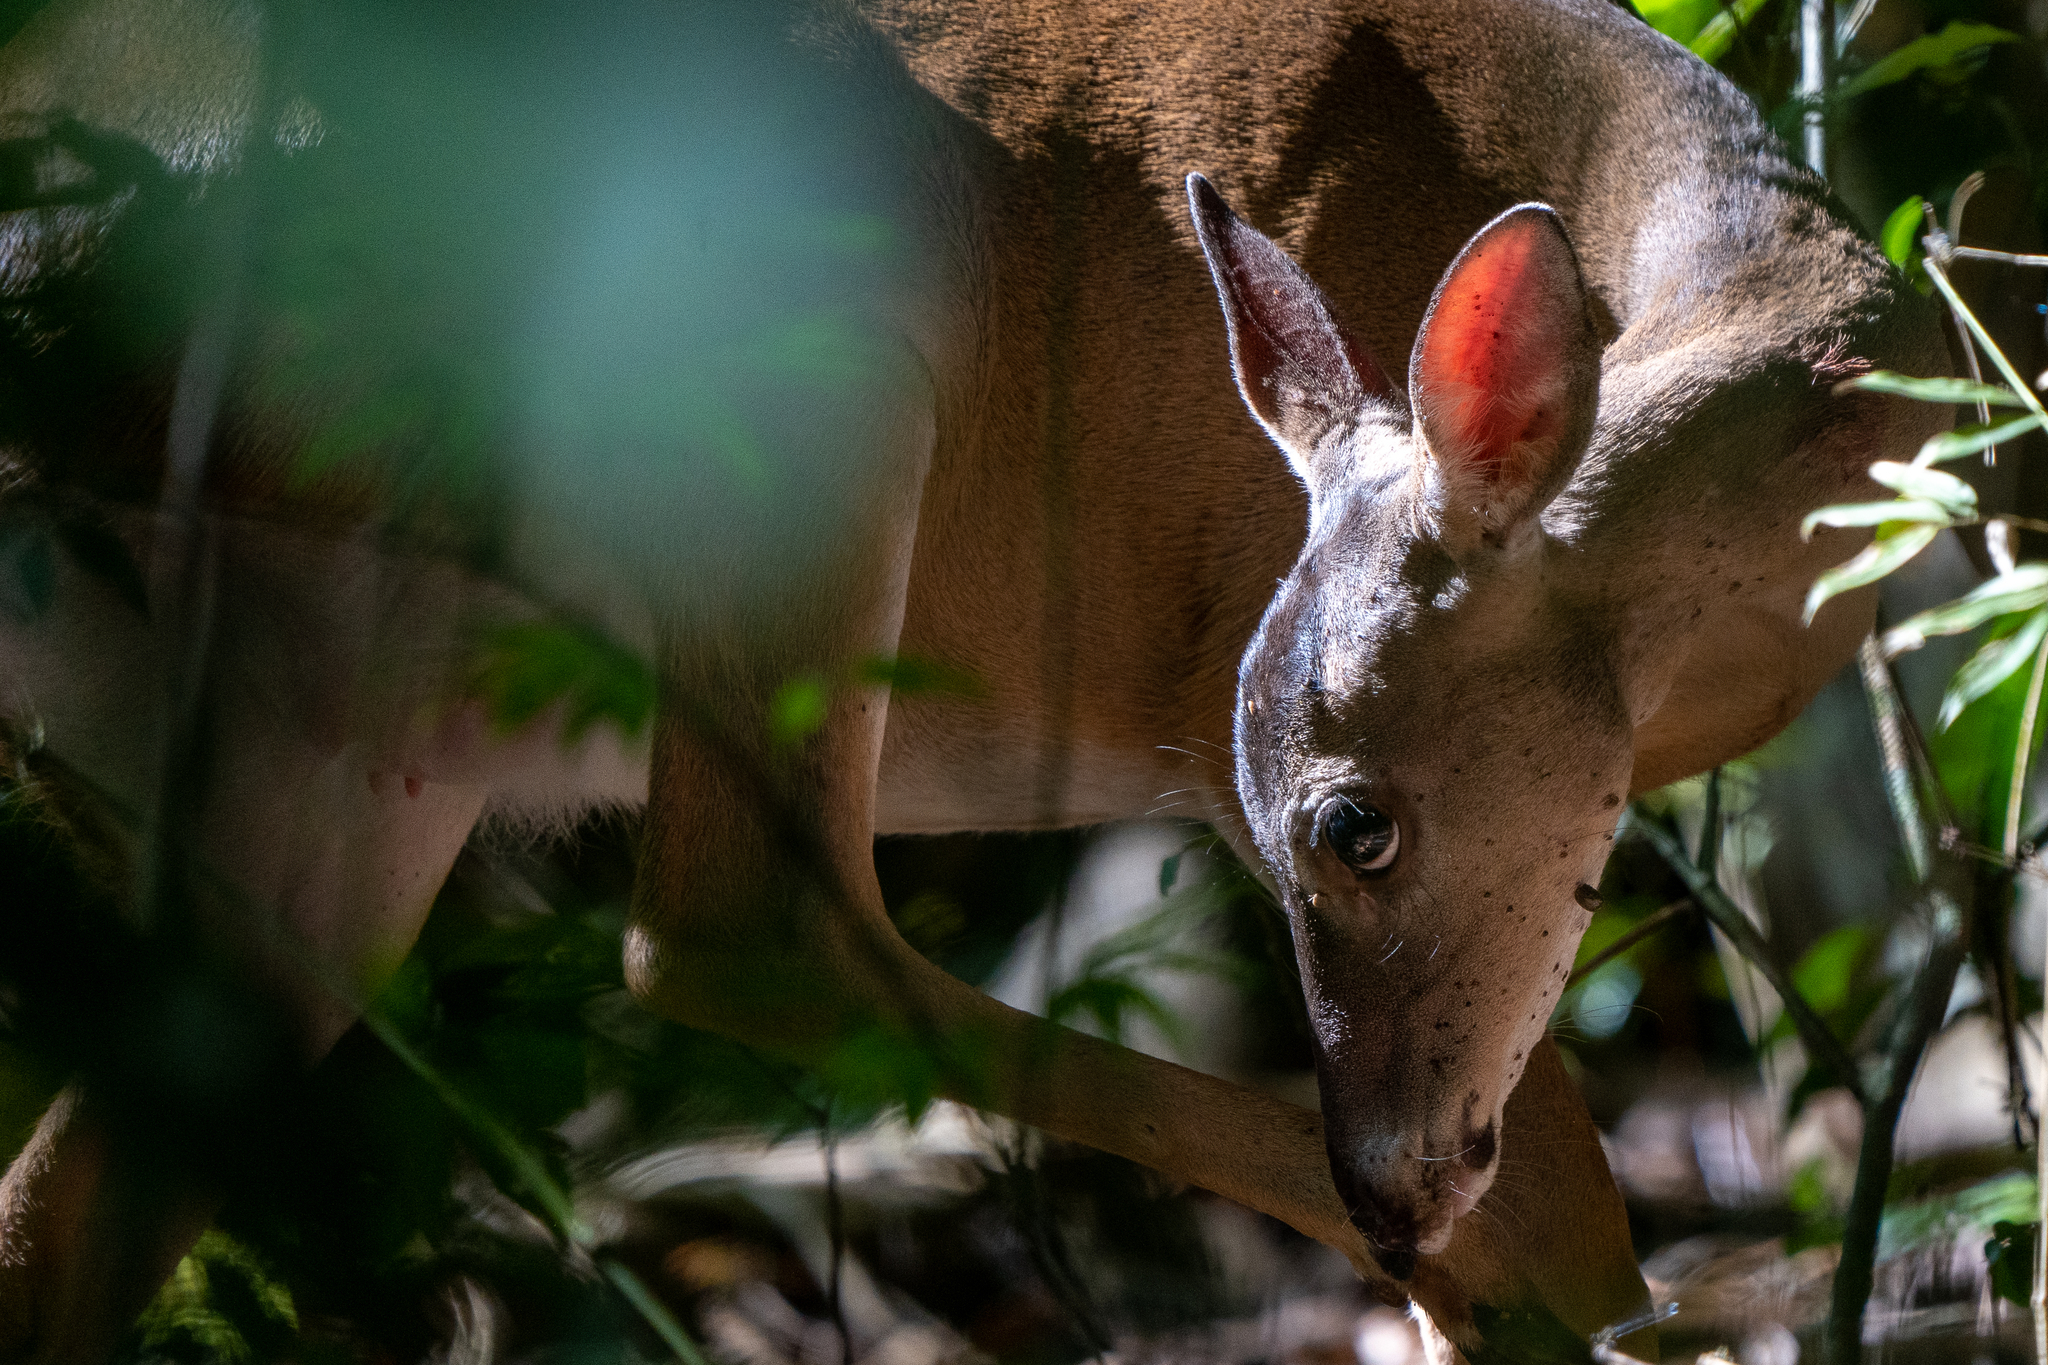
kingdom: Animalia
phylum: Chordata
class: Mammalia
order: Artiodactyla
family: Cervidae
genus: Odocoileus
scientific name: Odocoileus virginianus
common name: White-tailed deer
